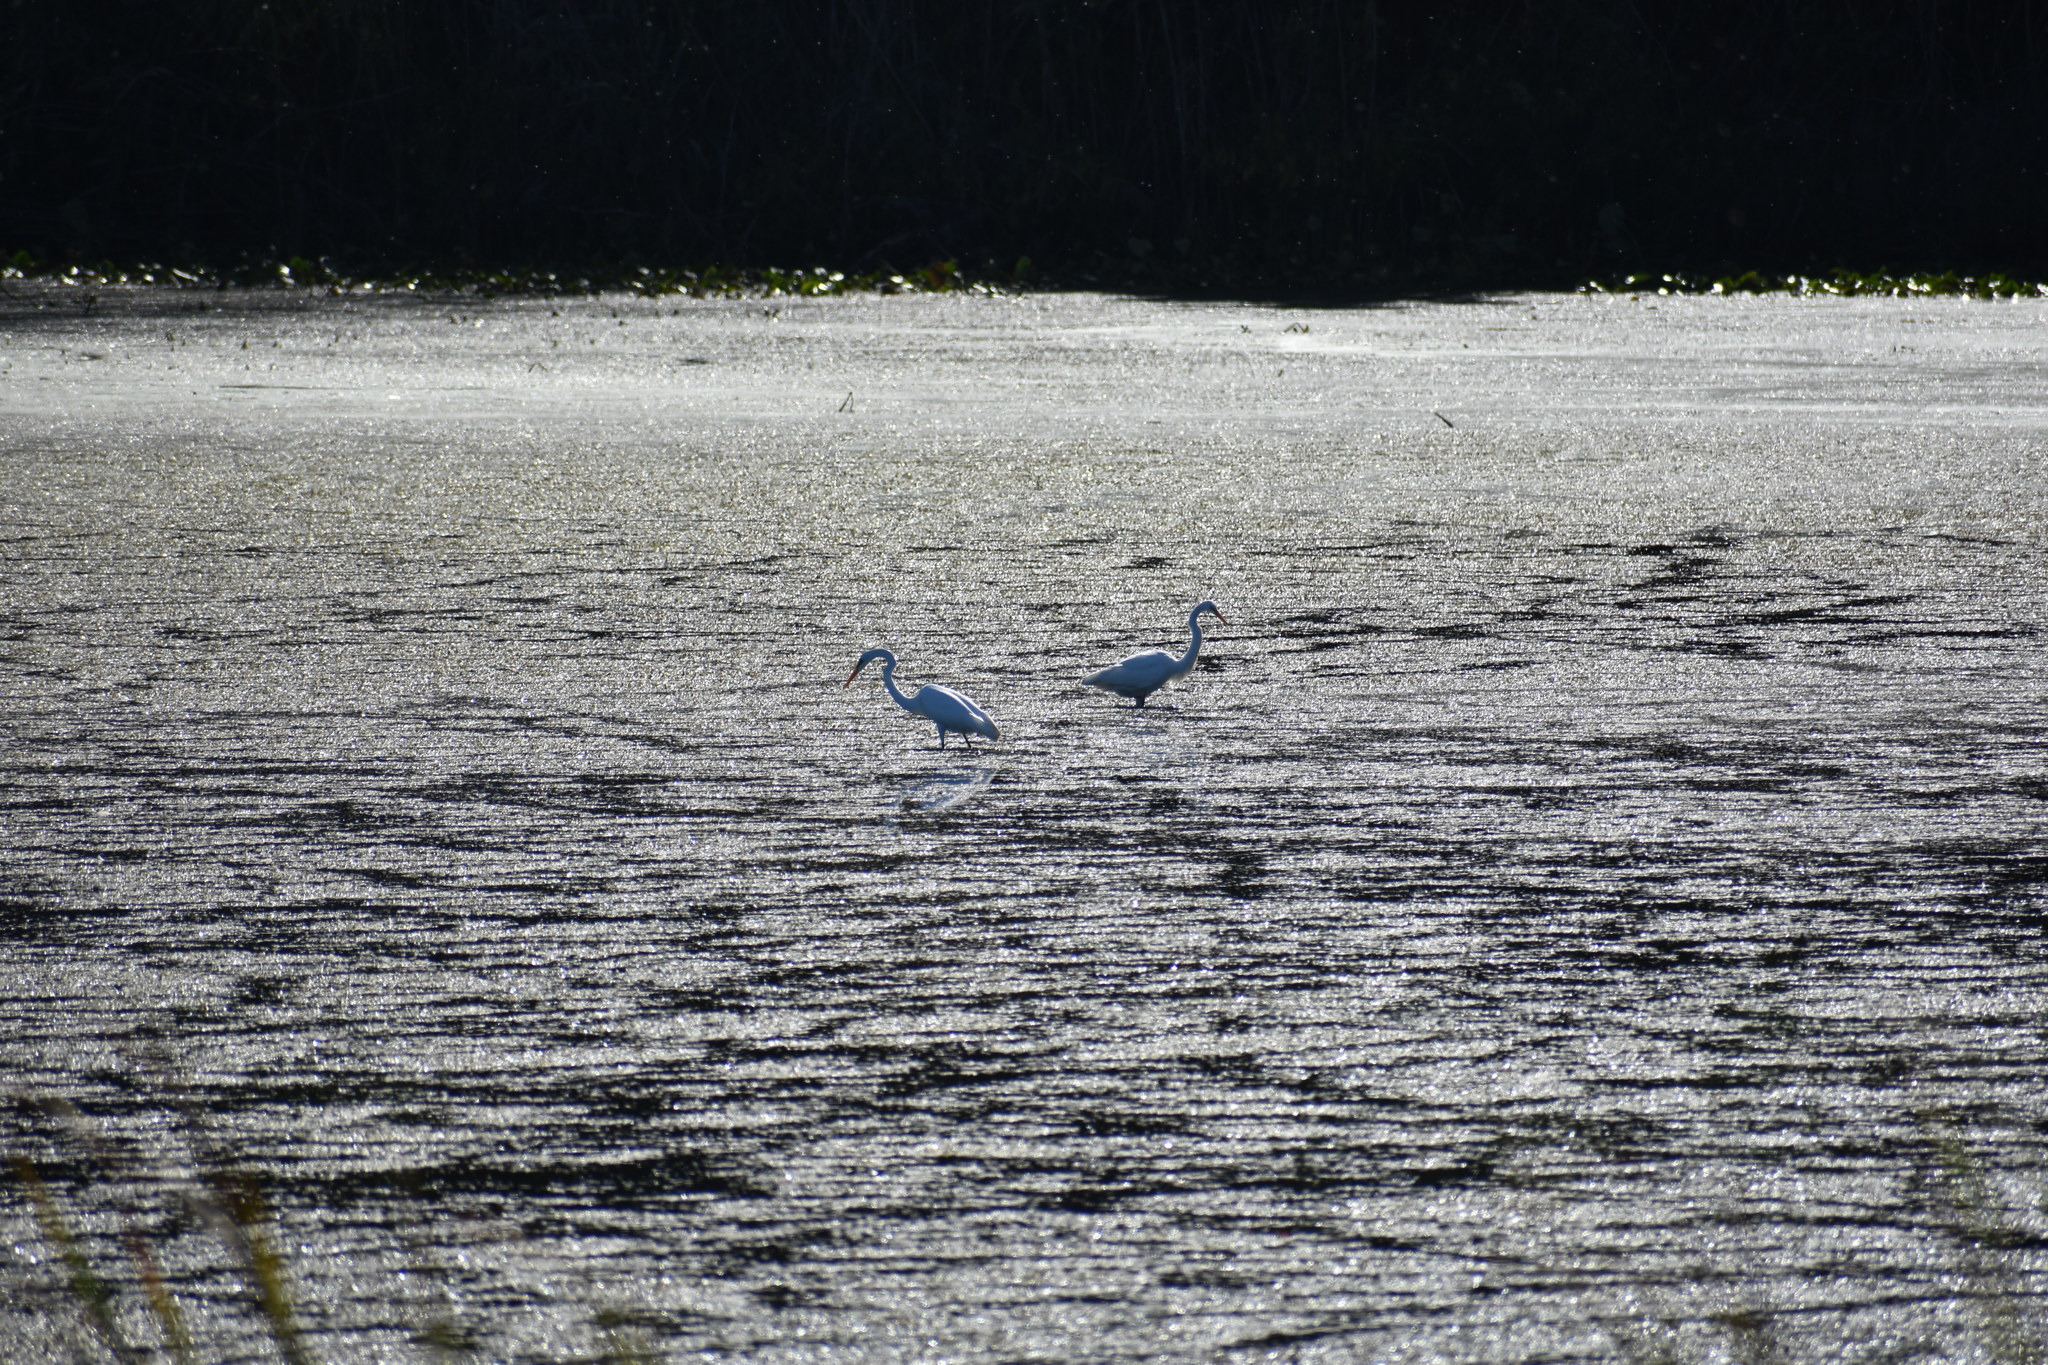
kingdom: Animalia
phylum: Chordata
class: Aves
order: Pelecaniformes
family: Ardeidae
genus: Ardea
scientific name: Ardea alba
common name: Great egret
